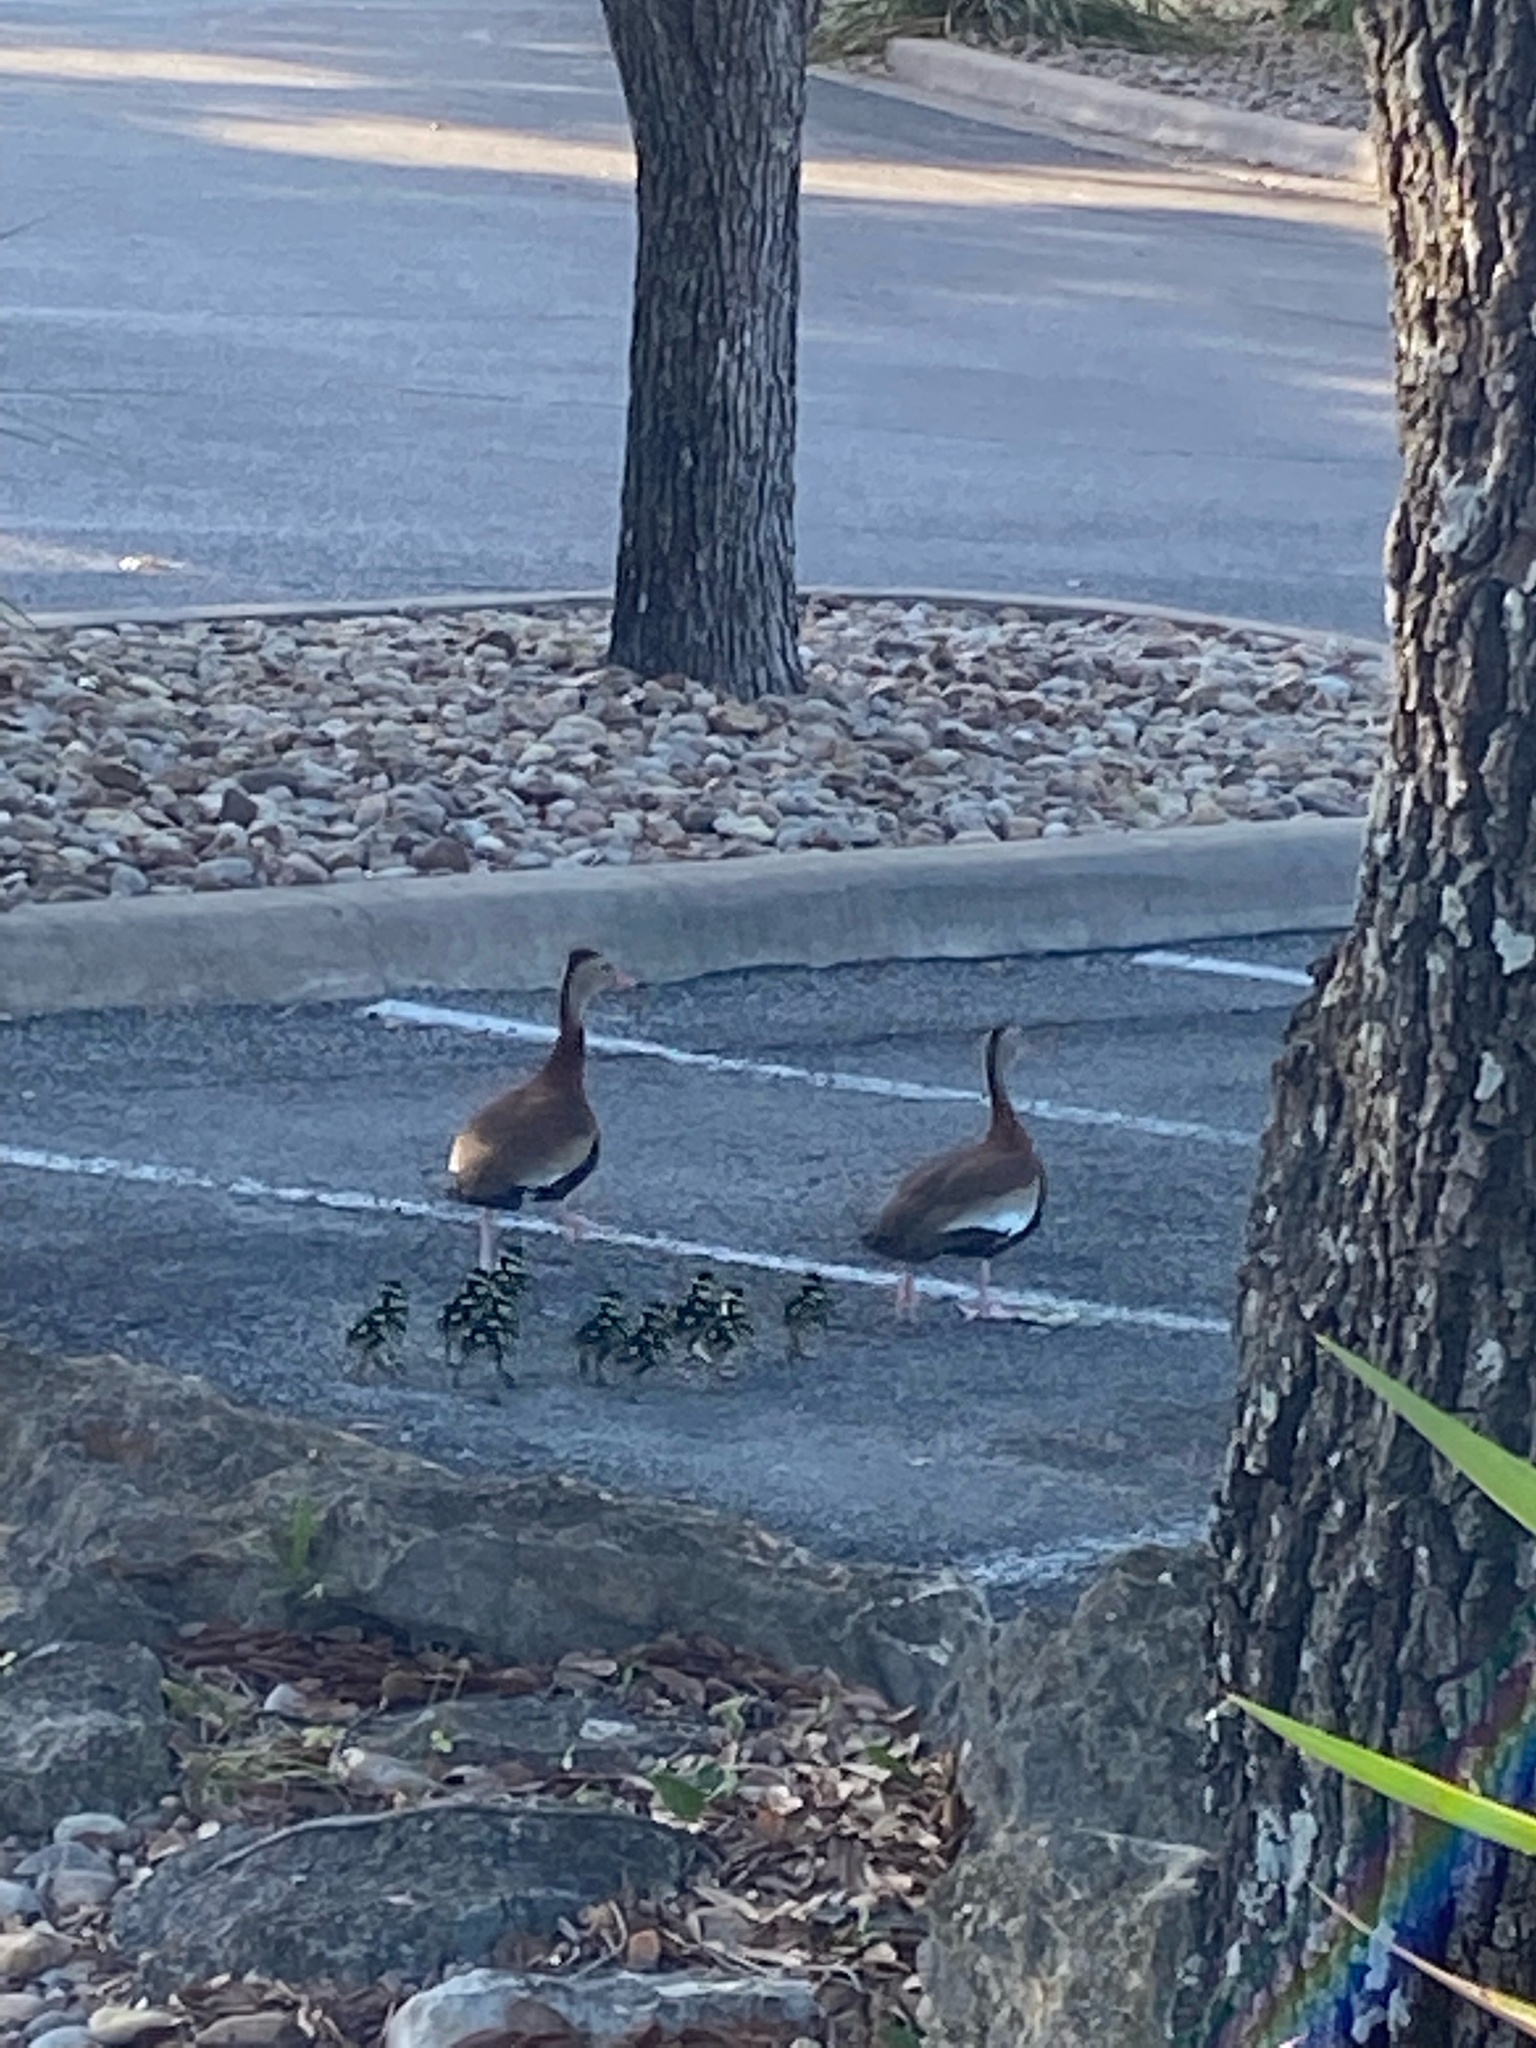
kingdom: Animalia
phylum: Chordata
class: Aves
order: Anseriformes
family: Anatidae
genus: Dendrocygna
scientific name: Dendrocygna autumnalis
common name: Black-bellied whistling duck
